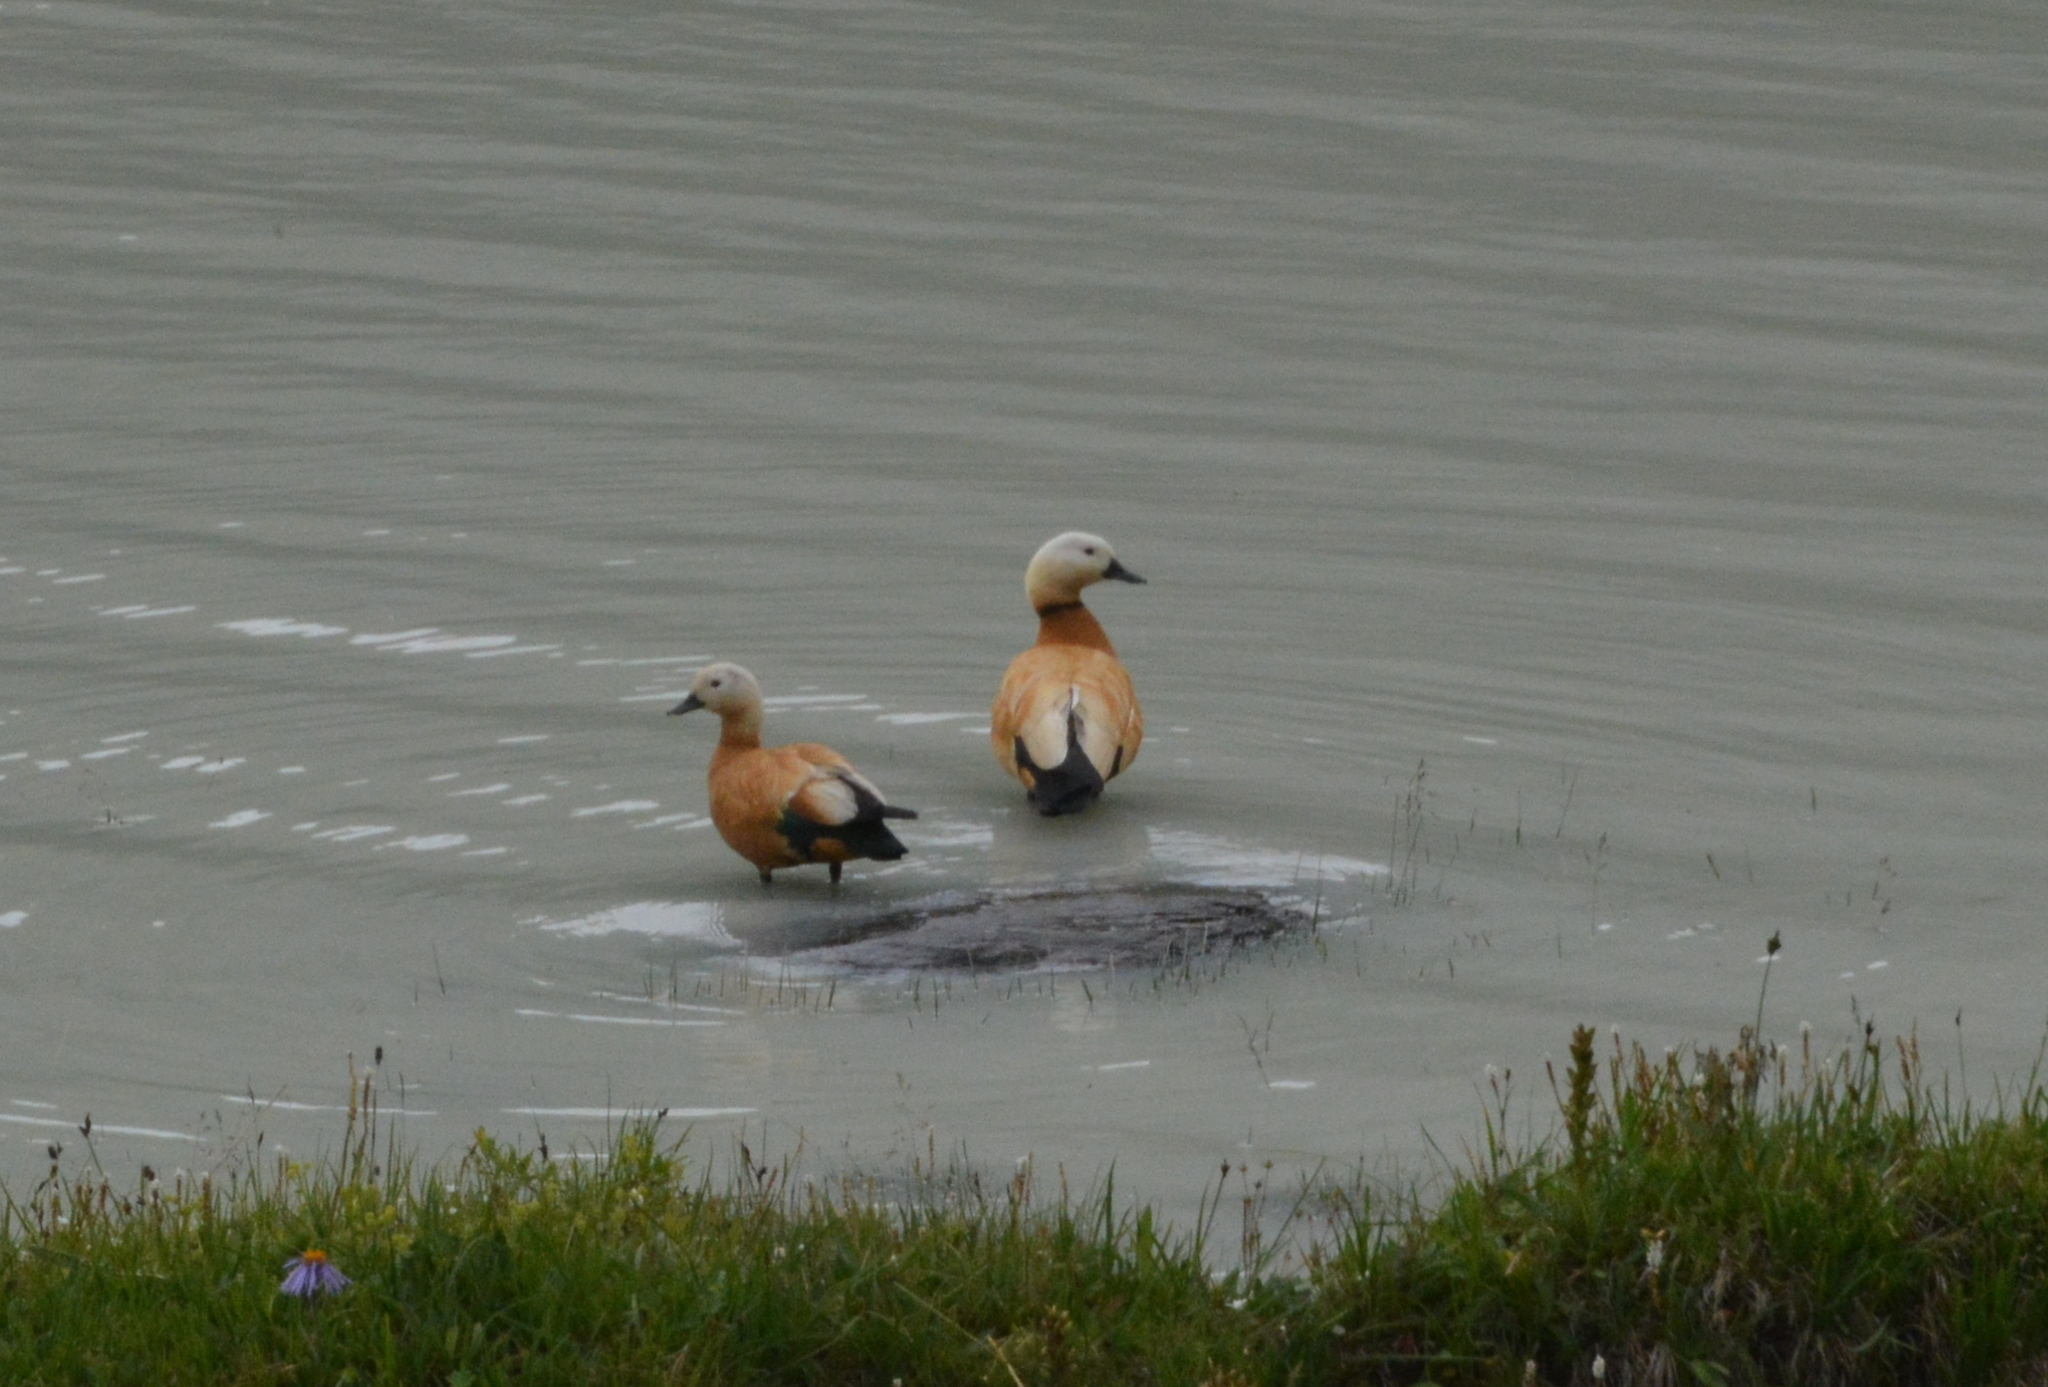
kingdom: Animalia
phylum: Chordata
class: Aves
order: Anseriformes
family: Anatidae
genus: Tadorna
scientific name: Tadorna ferruginea
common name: Ruddy shelduck
